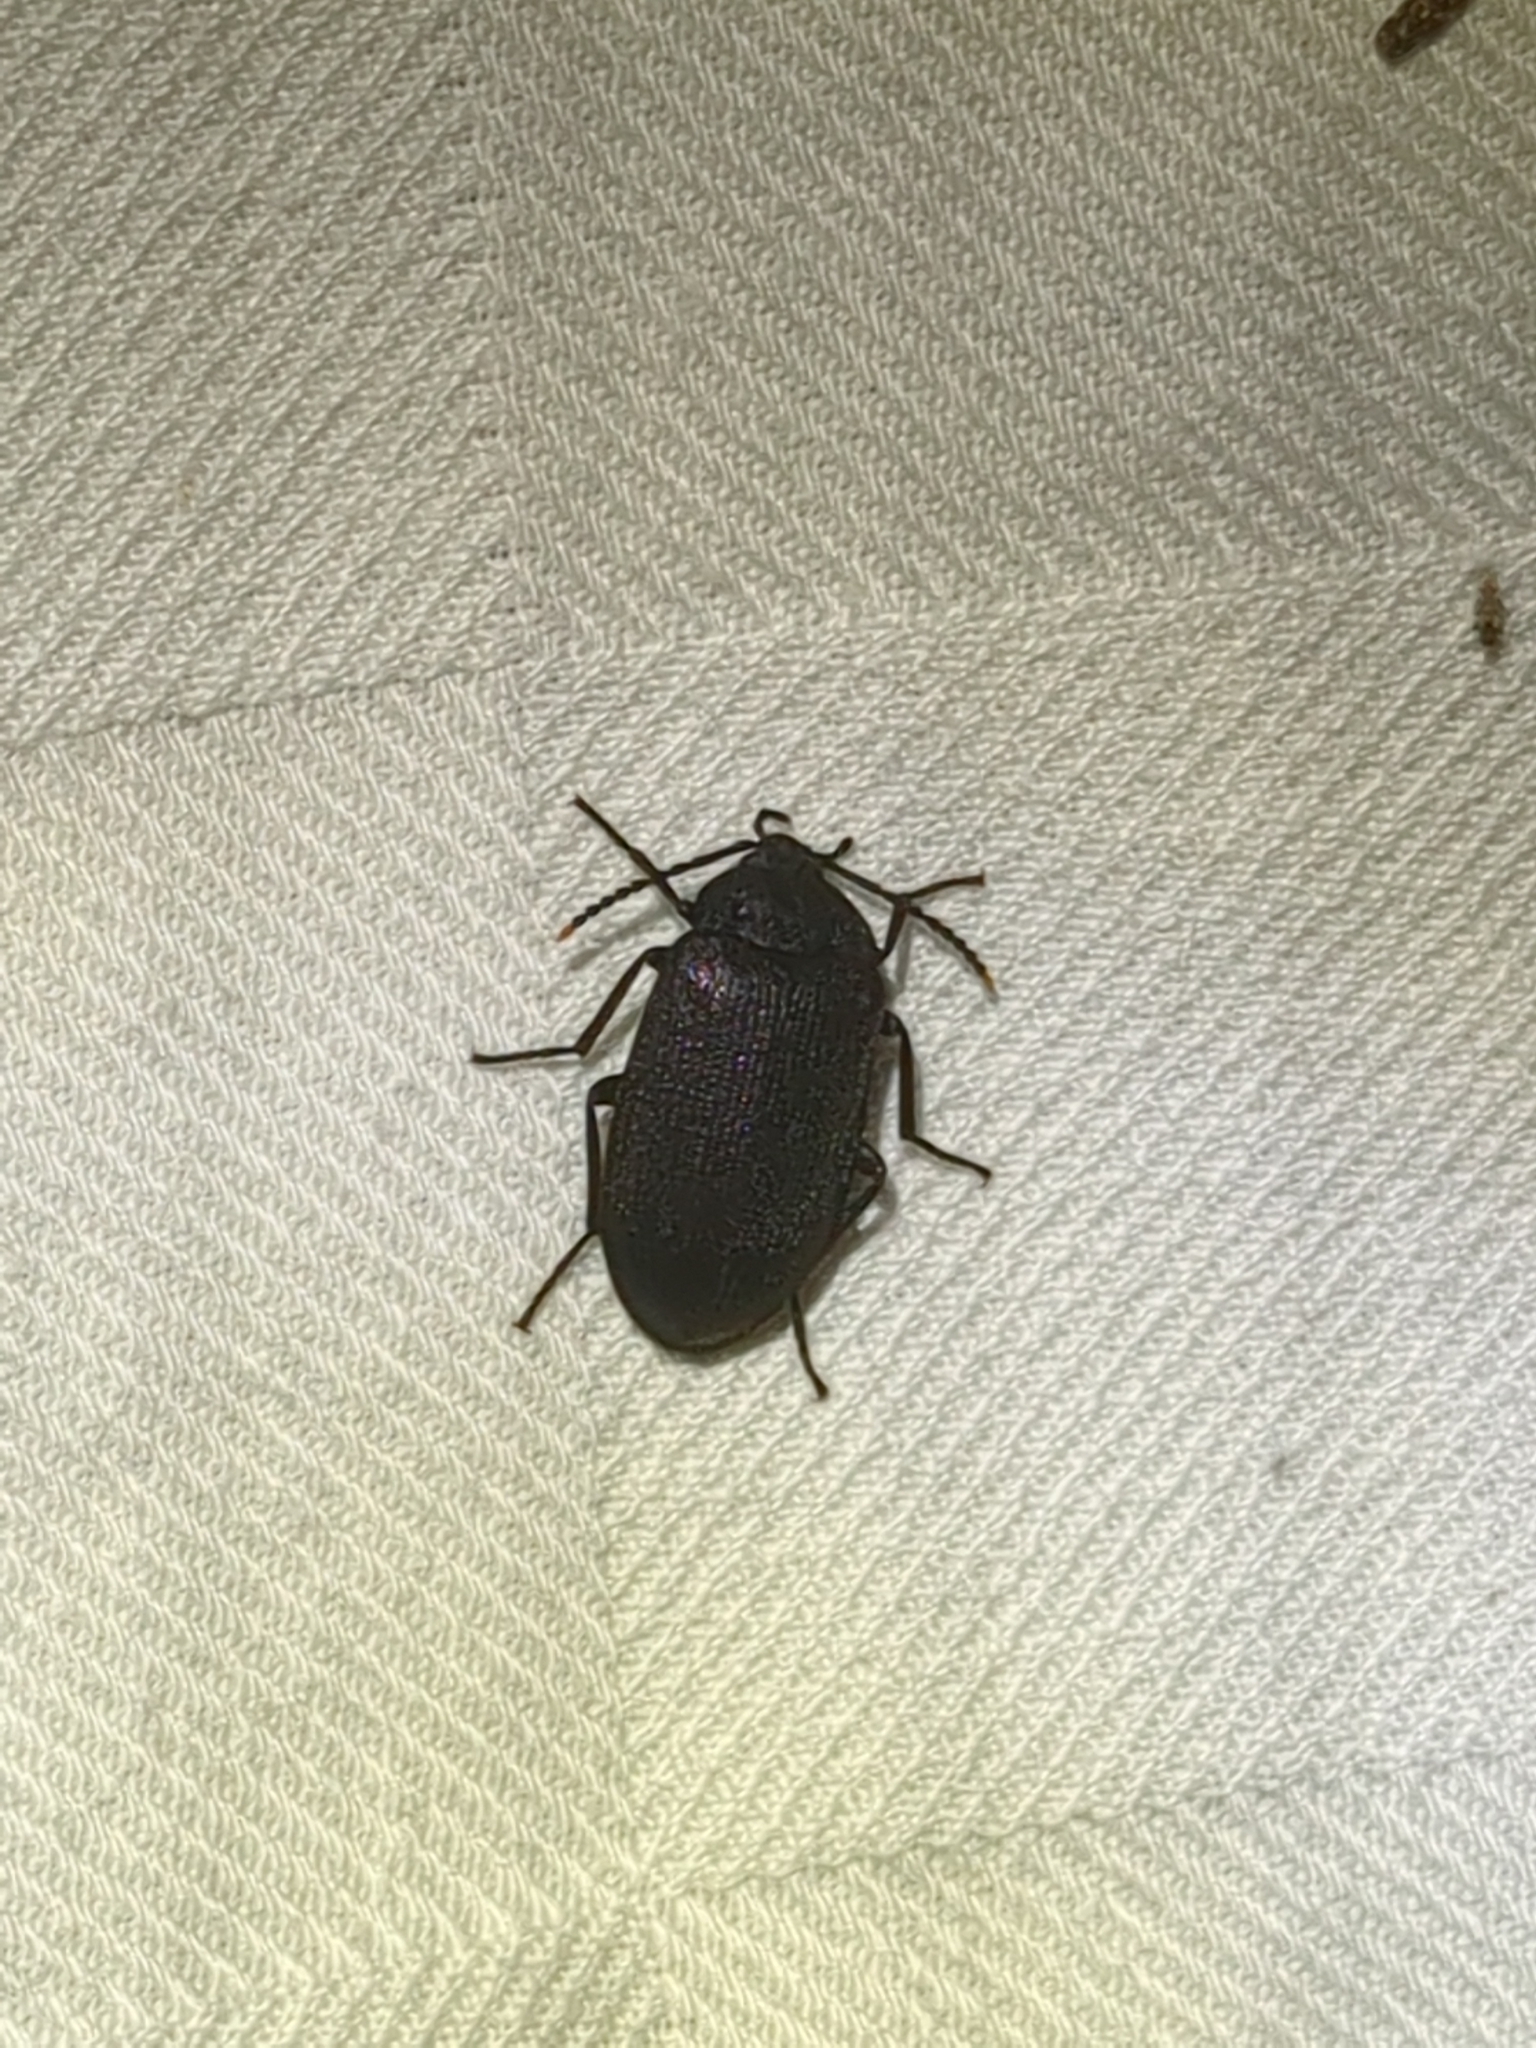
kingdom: Animalia
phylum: Arthropoda
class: Insecta
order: Coleoptera
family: Tetratomidae
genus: Penthe
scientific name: Penthe pimelia
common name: Velvety bark beetle
